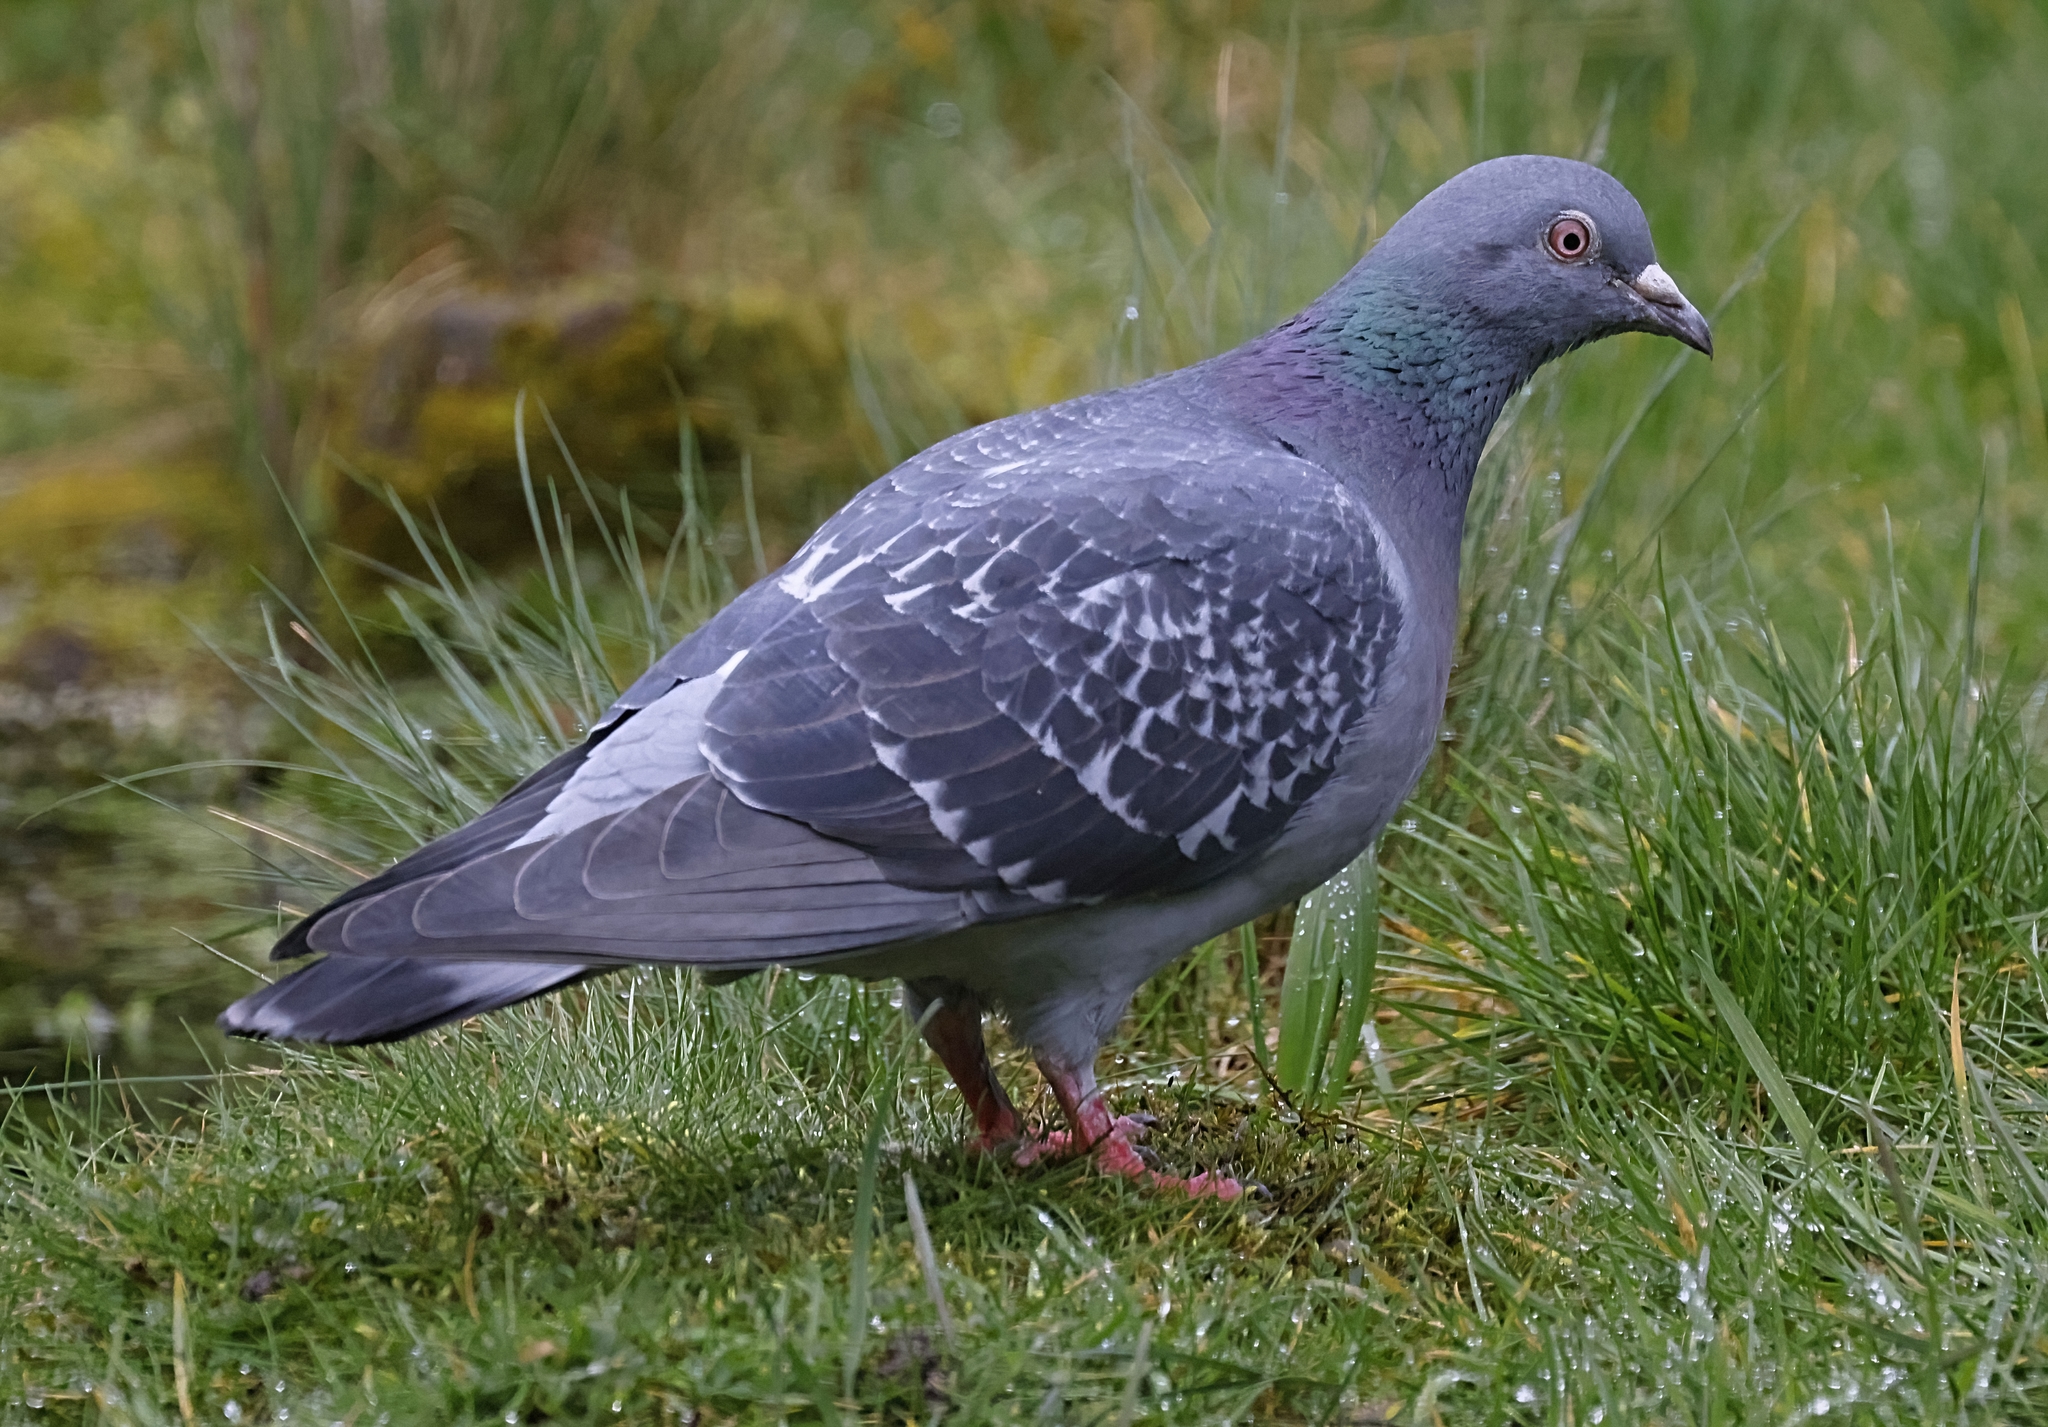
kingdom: Animalia
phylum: Chordata
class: Aves
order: Columbiformes
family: Columbidae
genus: Columba
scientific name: Columba livia
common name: Rock pigeon
